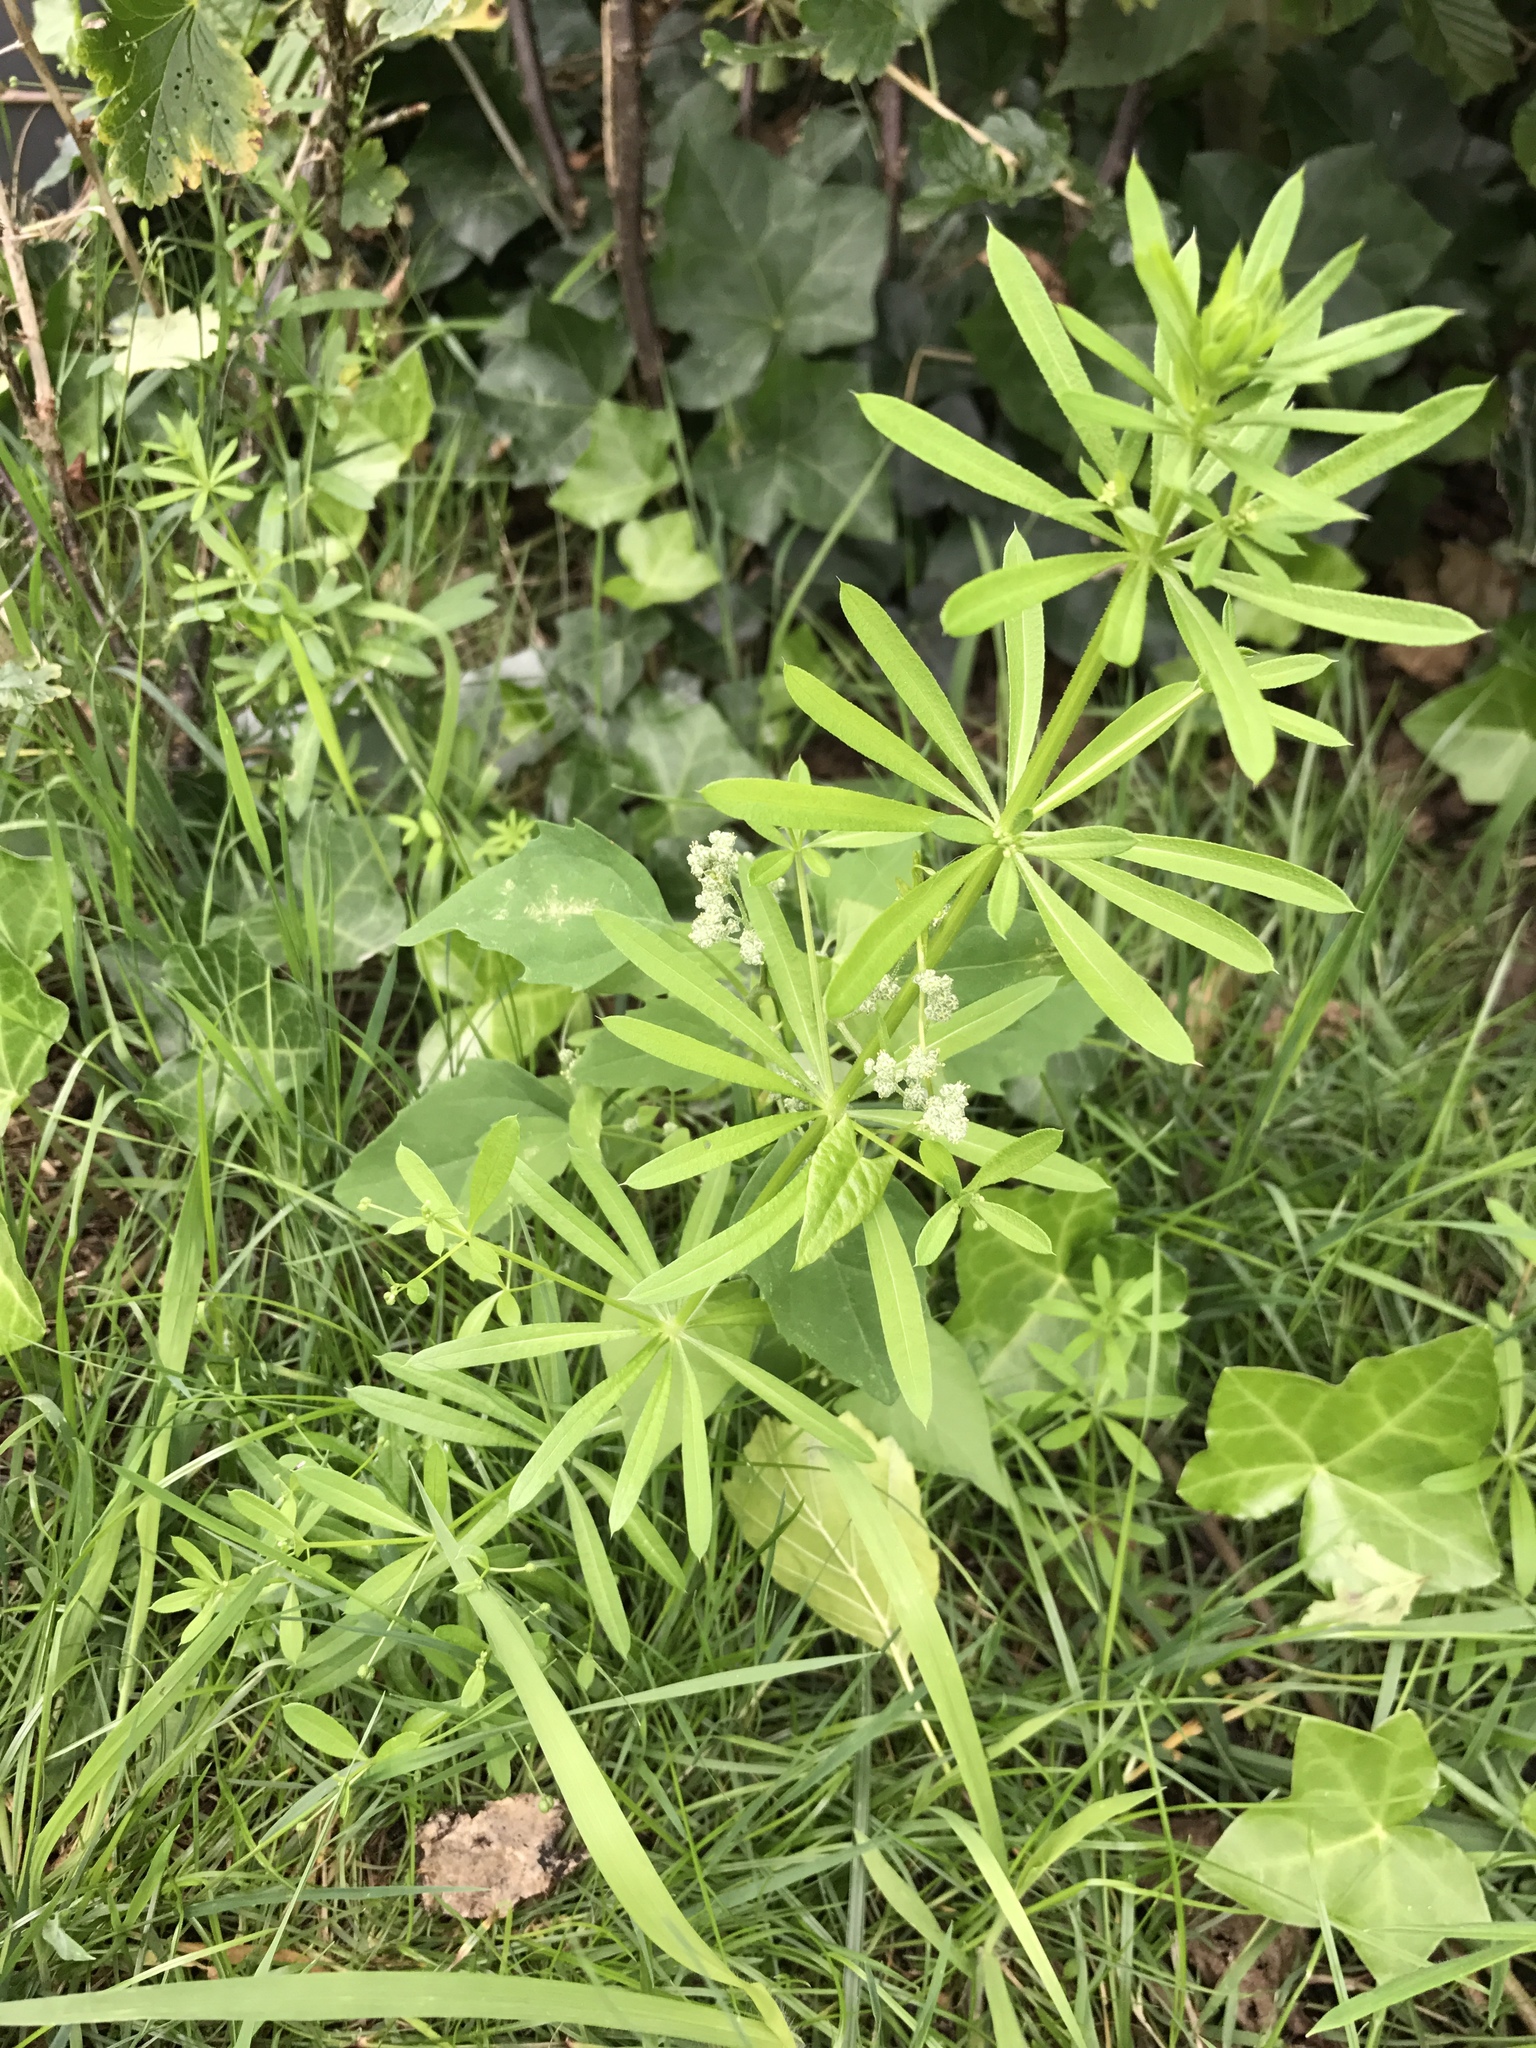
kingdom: Plantae
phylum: Tracheophyta
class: Magnoliopsida
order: Gentianales
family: Rubiaceae
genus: Galium
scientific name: Galium aparine
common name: Cleavers
